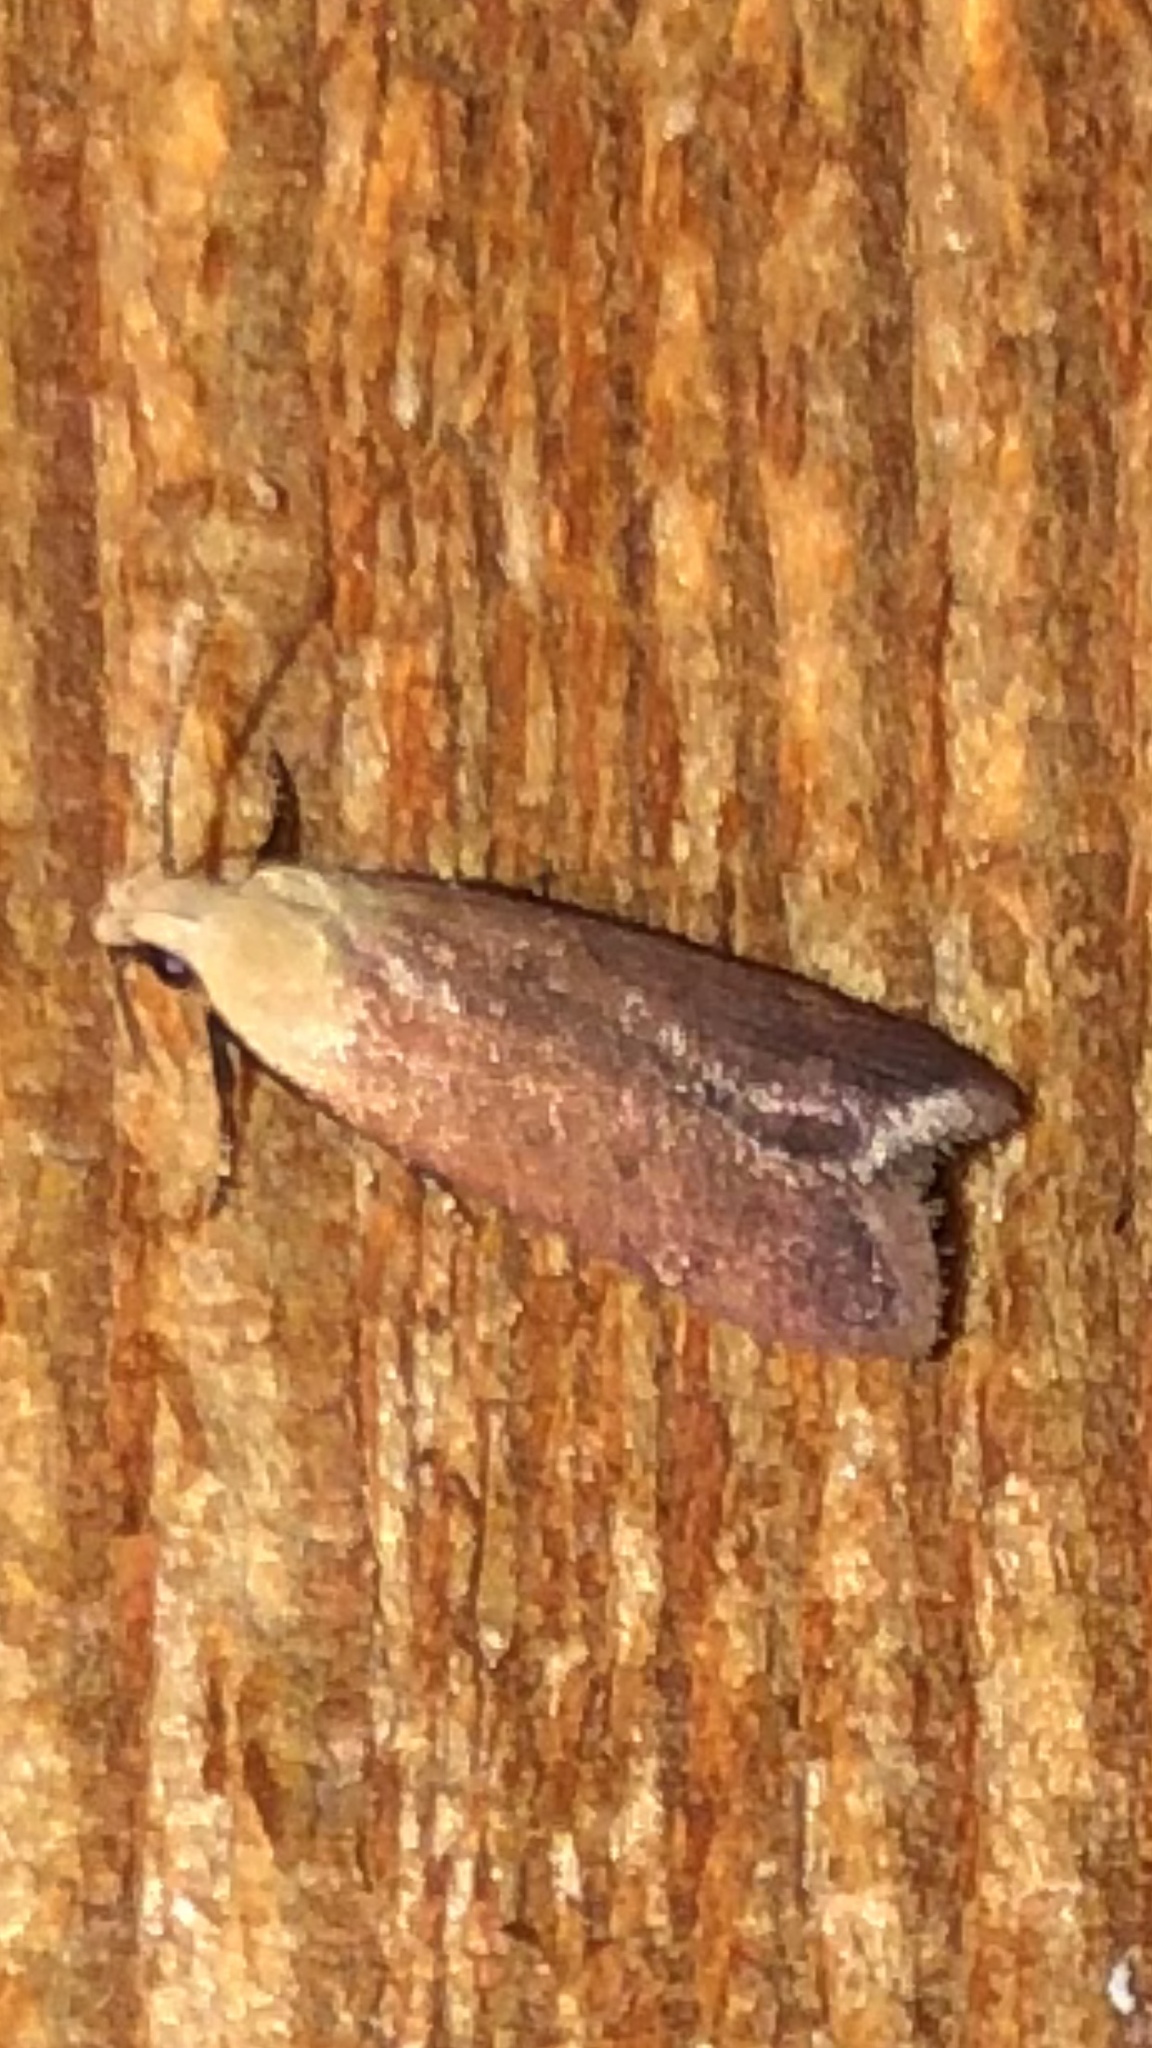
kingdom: Animalia
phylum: Arthropoda
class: Insecta
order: Lepidoptera
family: Gelechiidae
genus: Anacampsis
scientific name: Anacampsis fullonella
